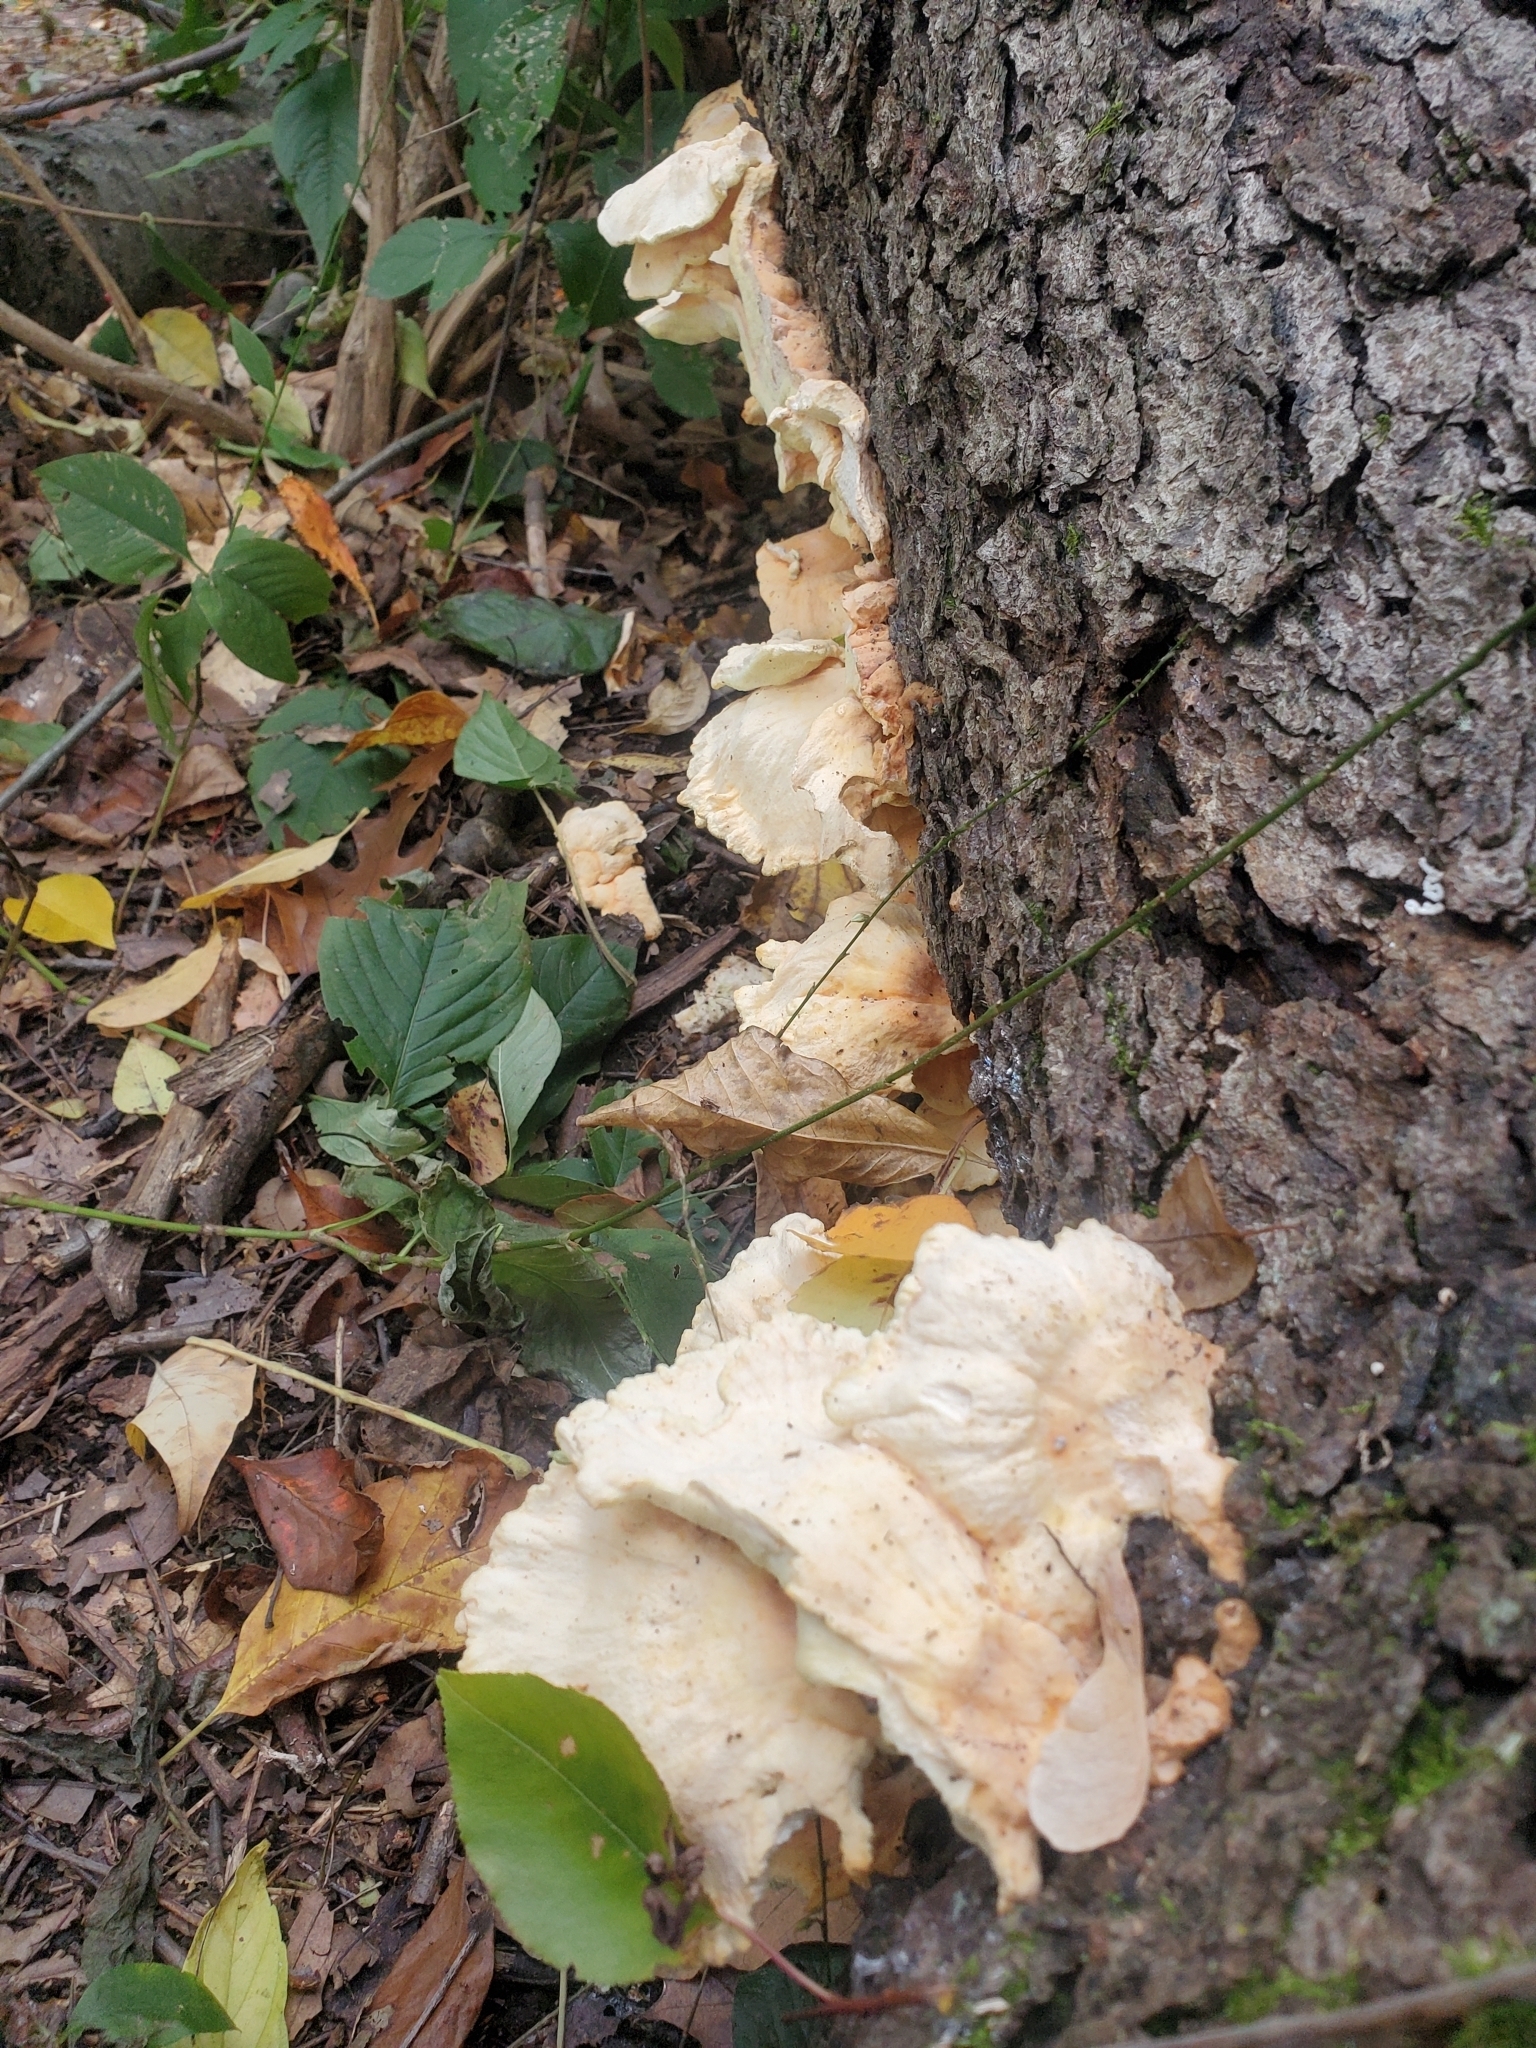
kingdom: Fungi
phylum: Basidiomycota
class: Agaricomycetes
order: Polyporales
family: Laetiporaceae
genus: Laetiporus
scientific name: Laetiporus sulphureus
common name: Chicken of the woods
